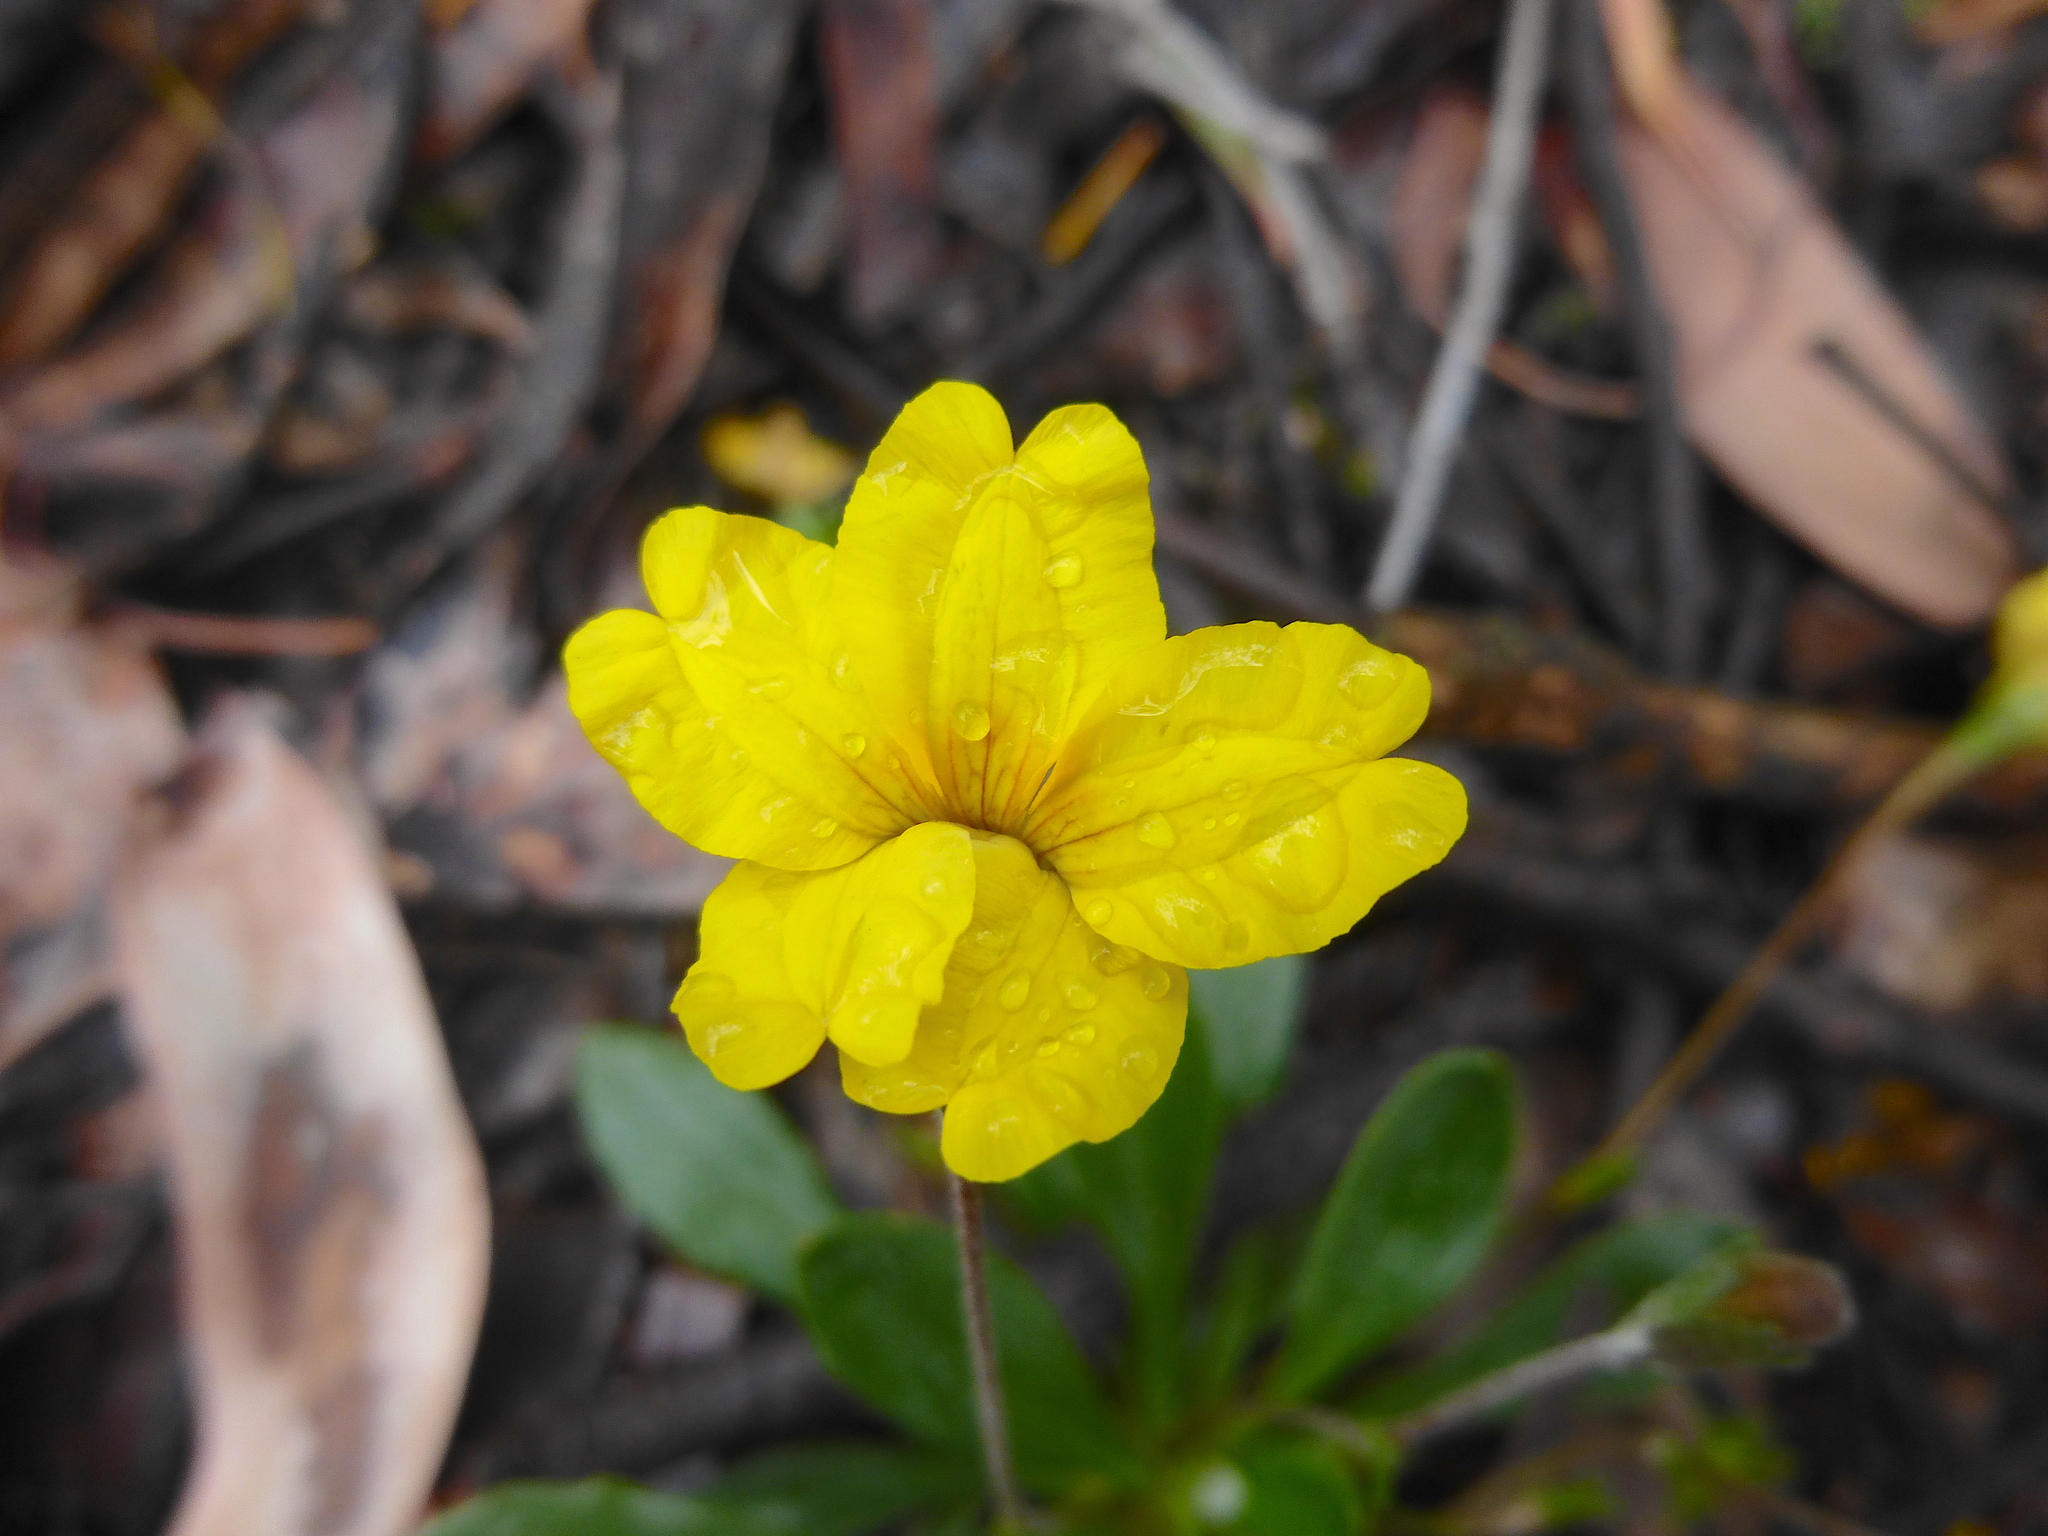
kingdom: Plantae
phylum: Tracheophyta
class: Magnoliopsida
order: Asterales
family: Goodeniaceae
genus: Goodenia
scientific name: Goodenia blackiana
